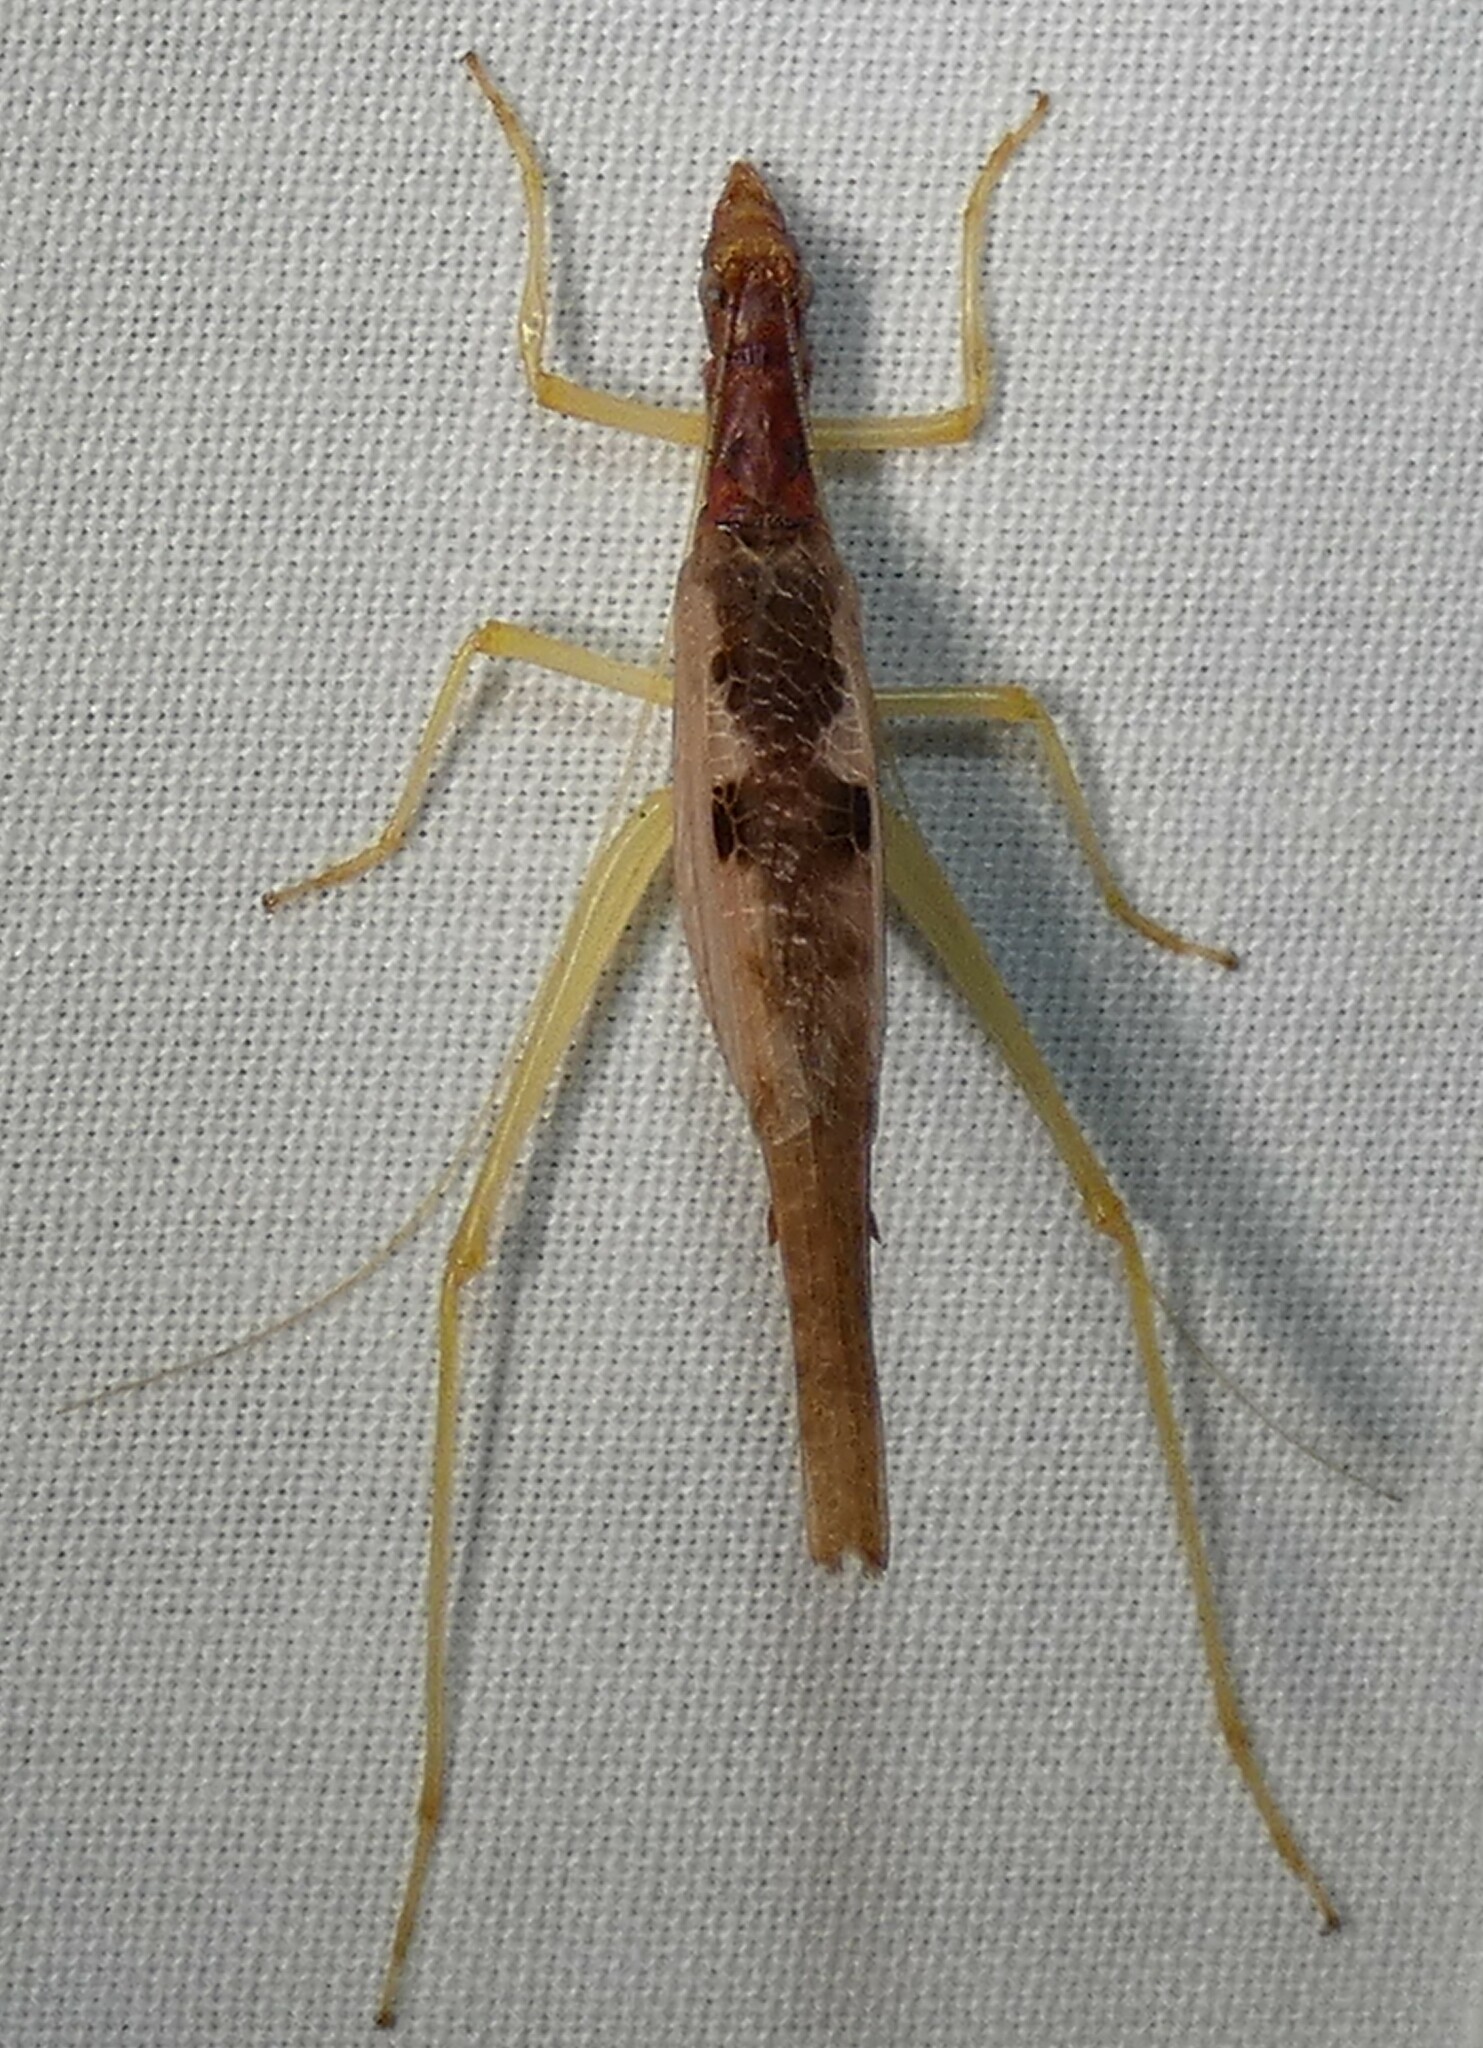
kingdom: Animalia
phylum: Arthropoda
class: Insecta
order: Orthoptera
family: Gryllidae
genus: Neoxabea
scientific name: Neoxabea bipunctata
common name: Two-spotted tree cricket
